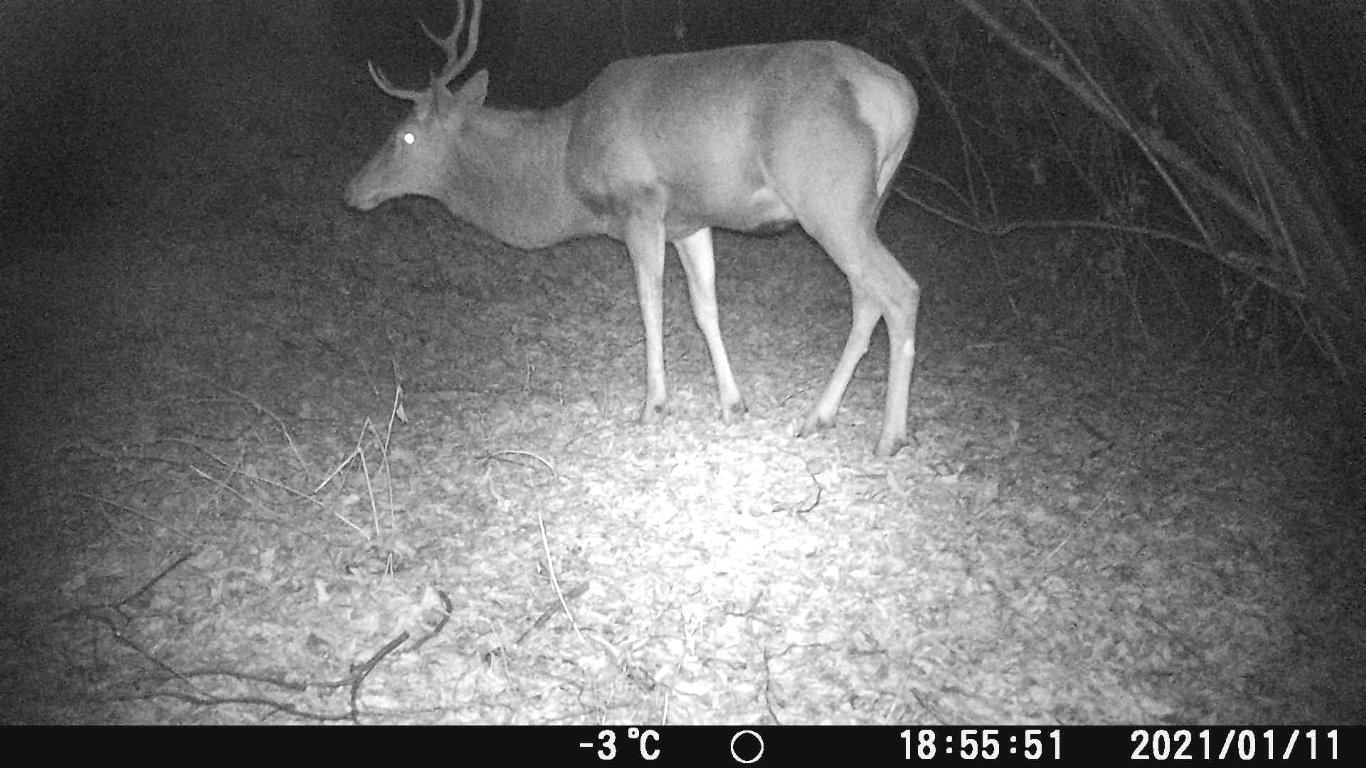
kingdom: Animalia
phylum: Chordata
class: Mammalia
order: Artiodactyla
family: Cervidae
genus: Cervus
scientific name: Cervus elaphus
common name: Red deer
